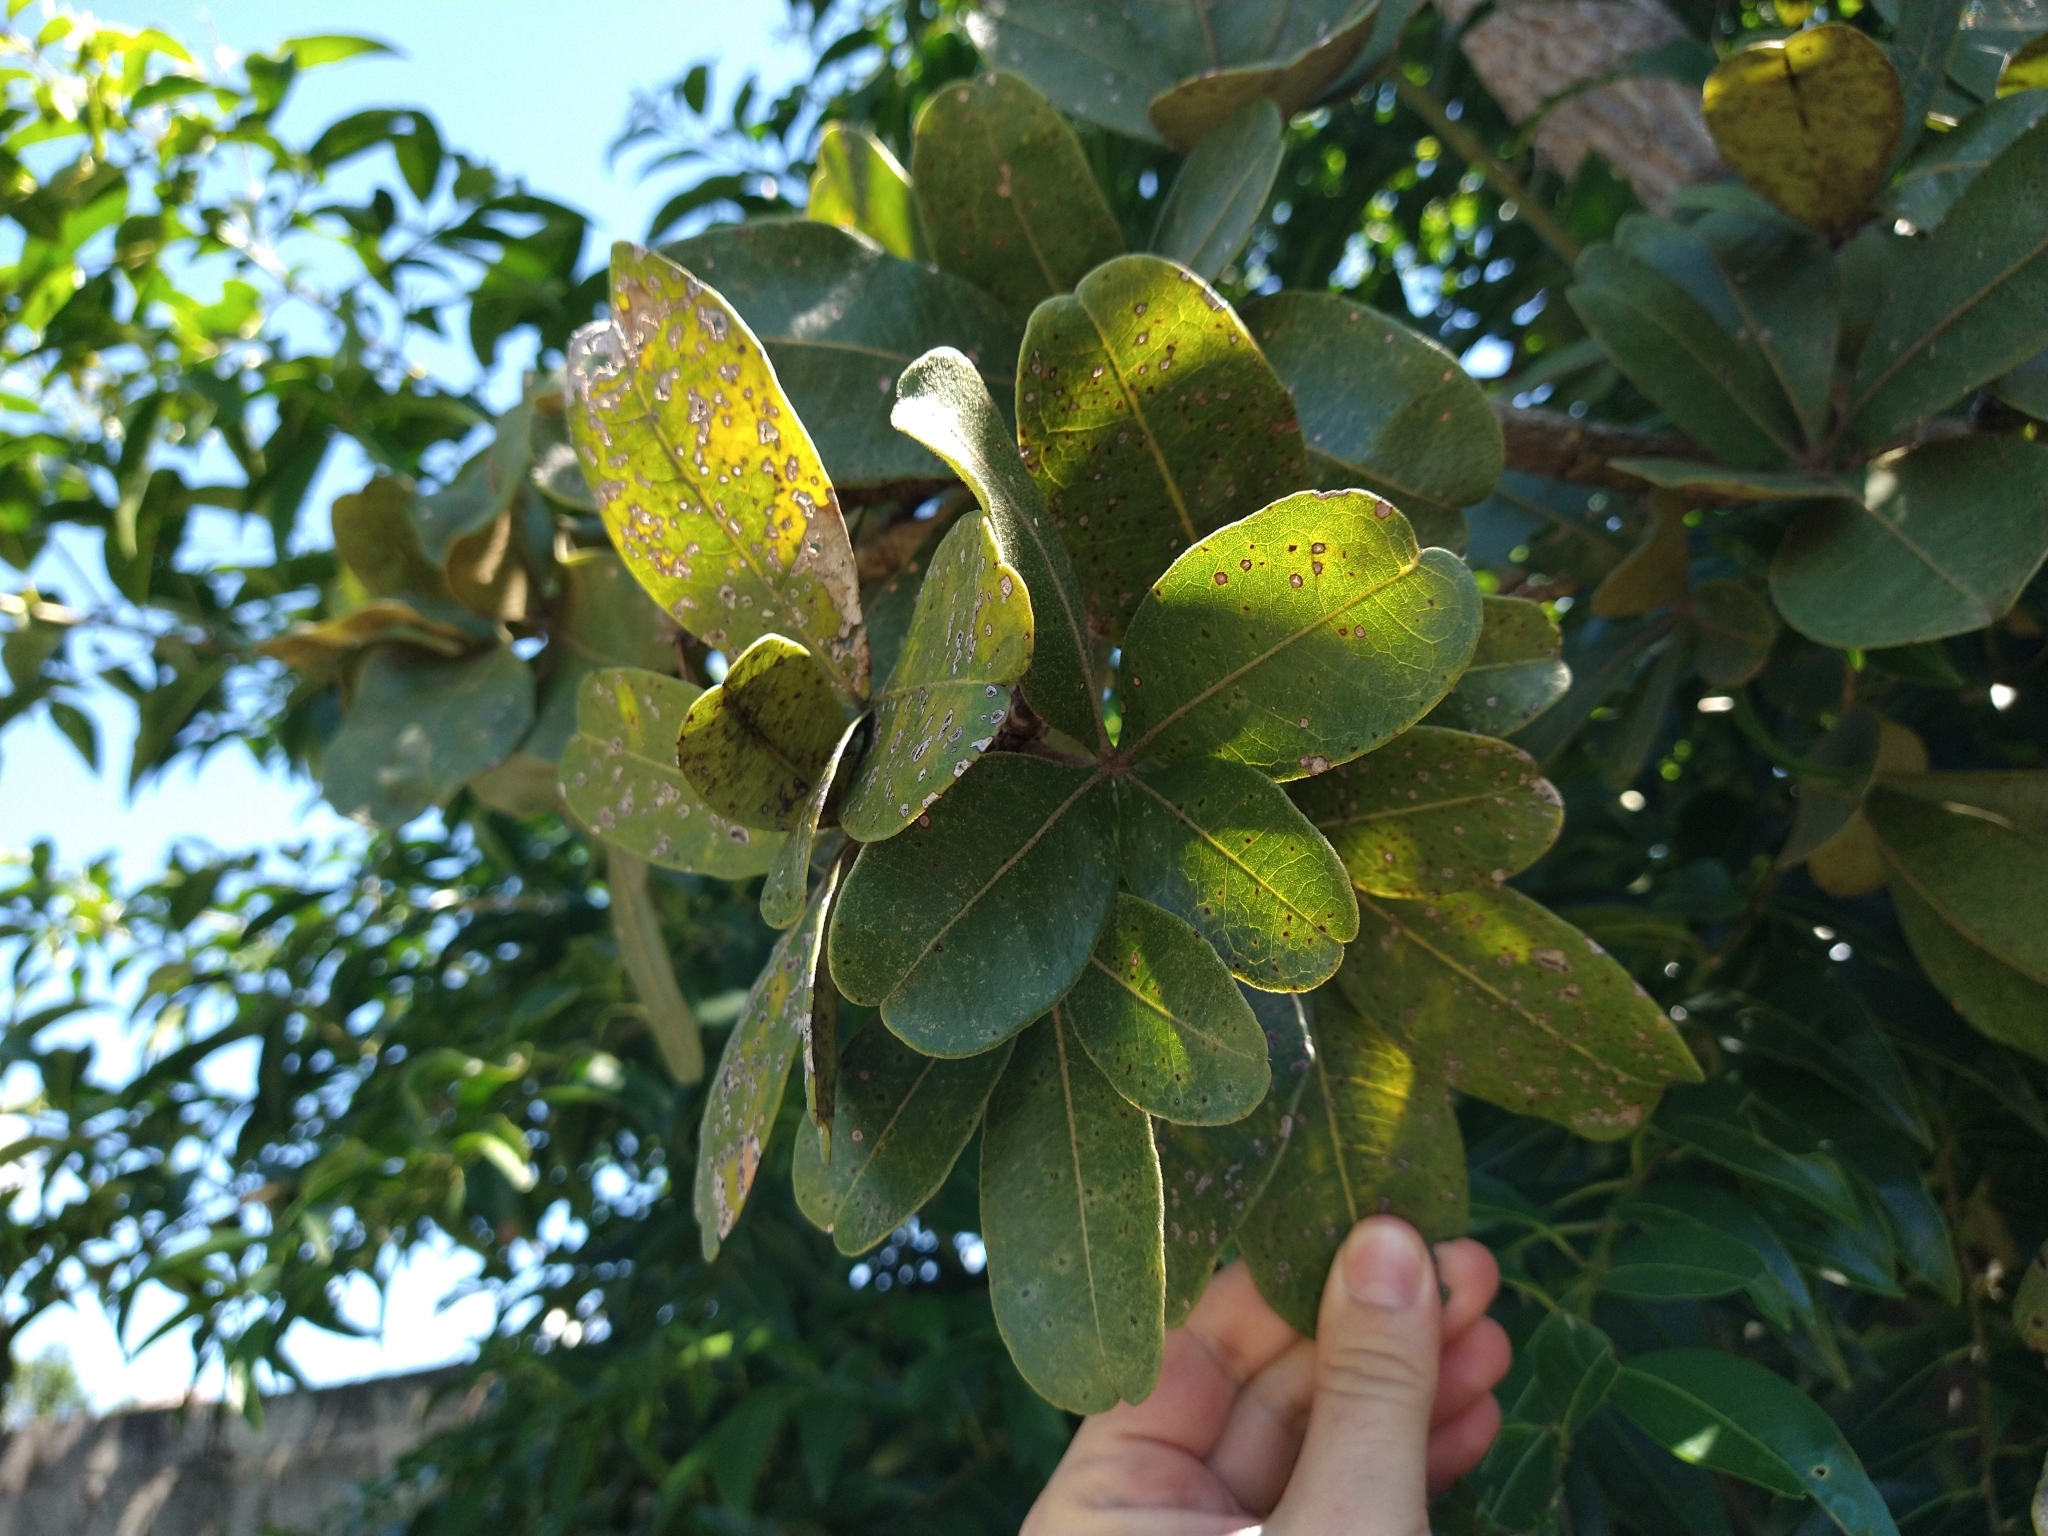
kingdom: Plantae
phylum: Tracheophyta
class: Magnoliopsida
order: Malvales
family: Malvaceae
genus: Eriotheca
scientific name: Eriotheca pubescens
